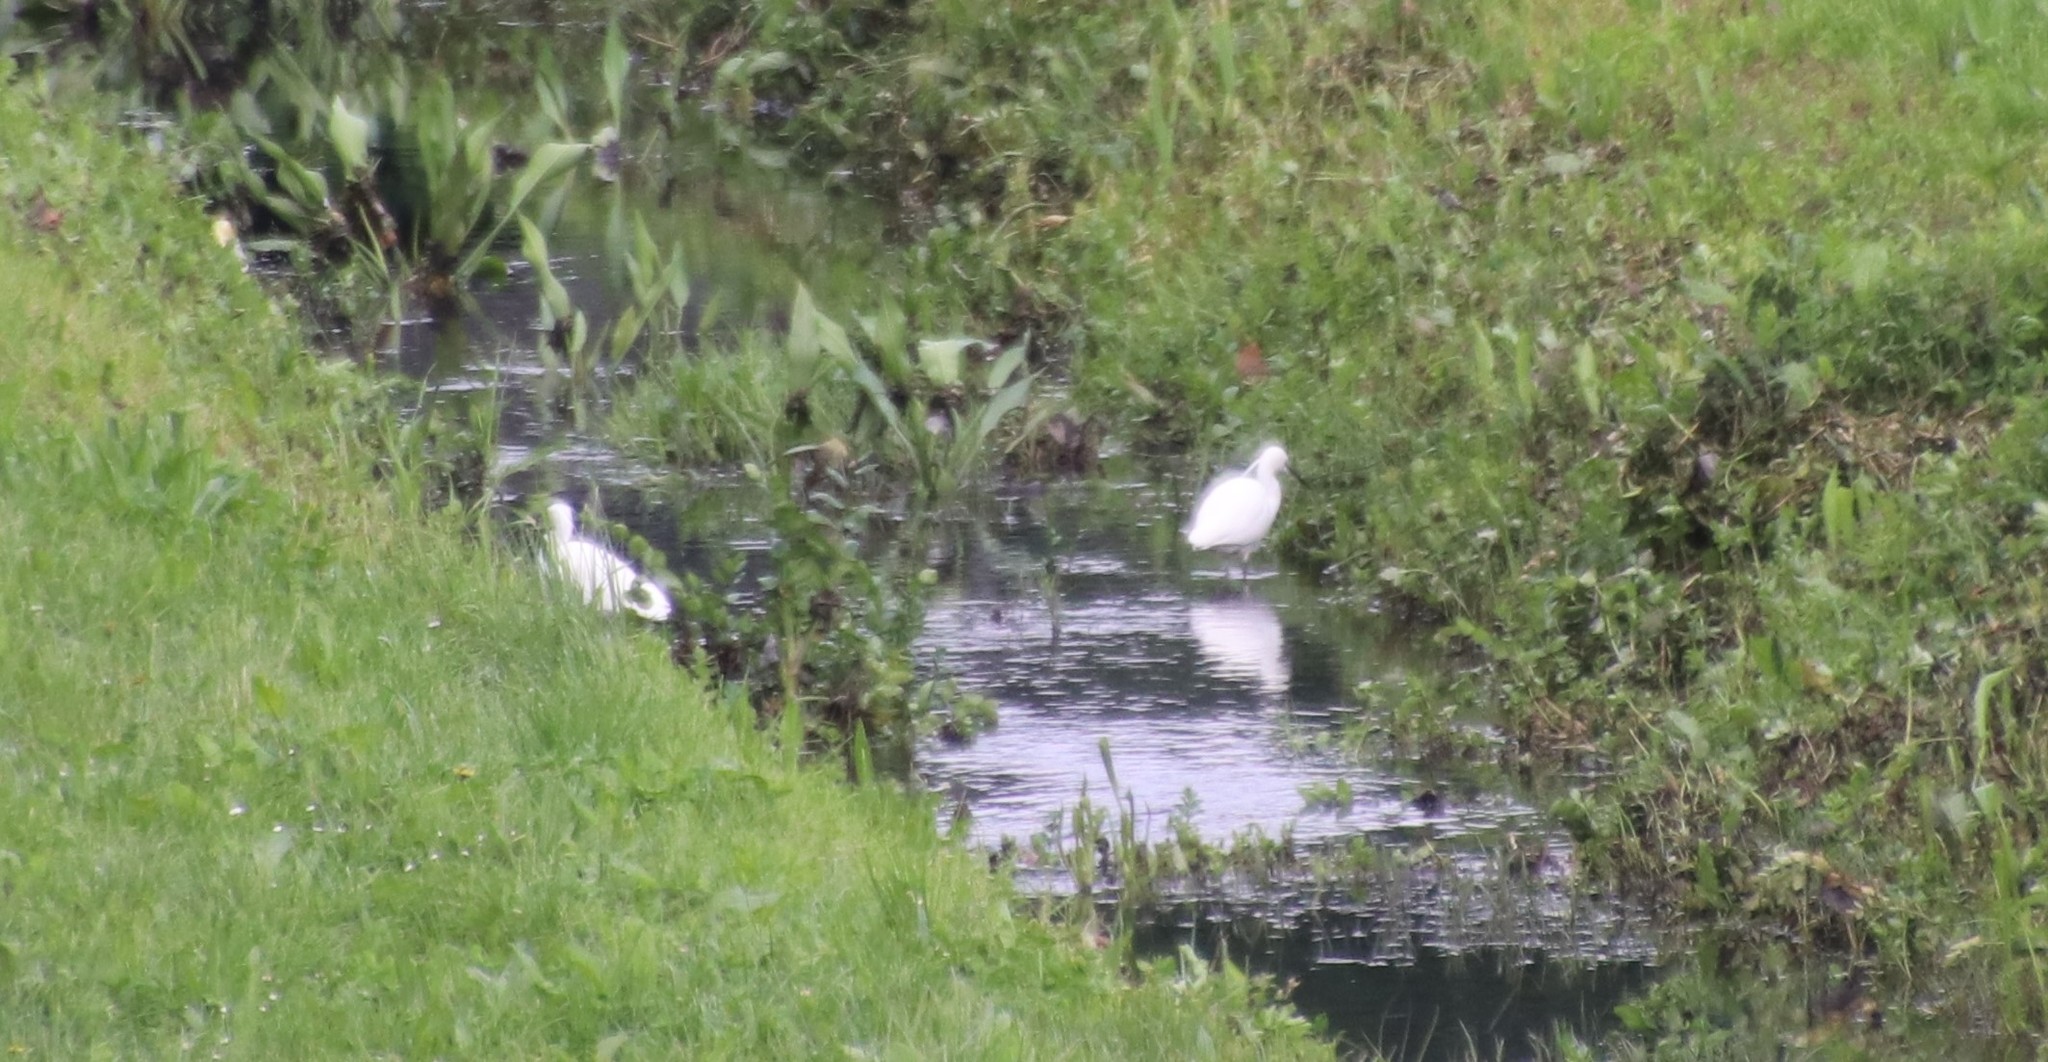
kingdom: Animalia
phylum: Chordata
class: Aves
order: Pelecaniformes
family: Ardeidae
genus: Egretta
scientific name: Egretta garzetta
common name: Little egret
